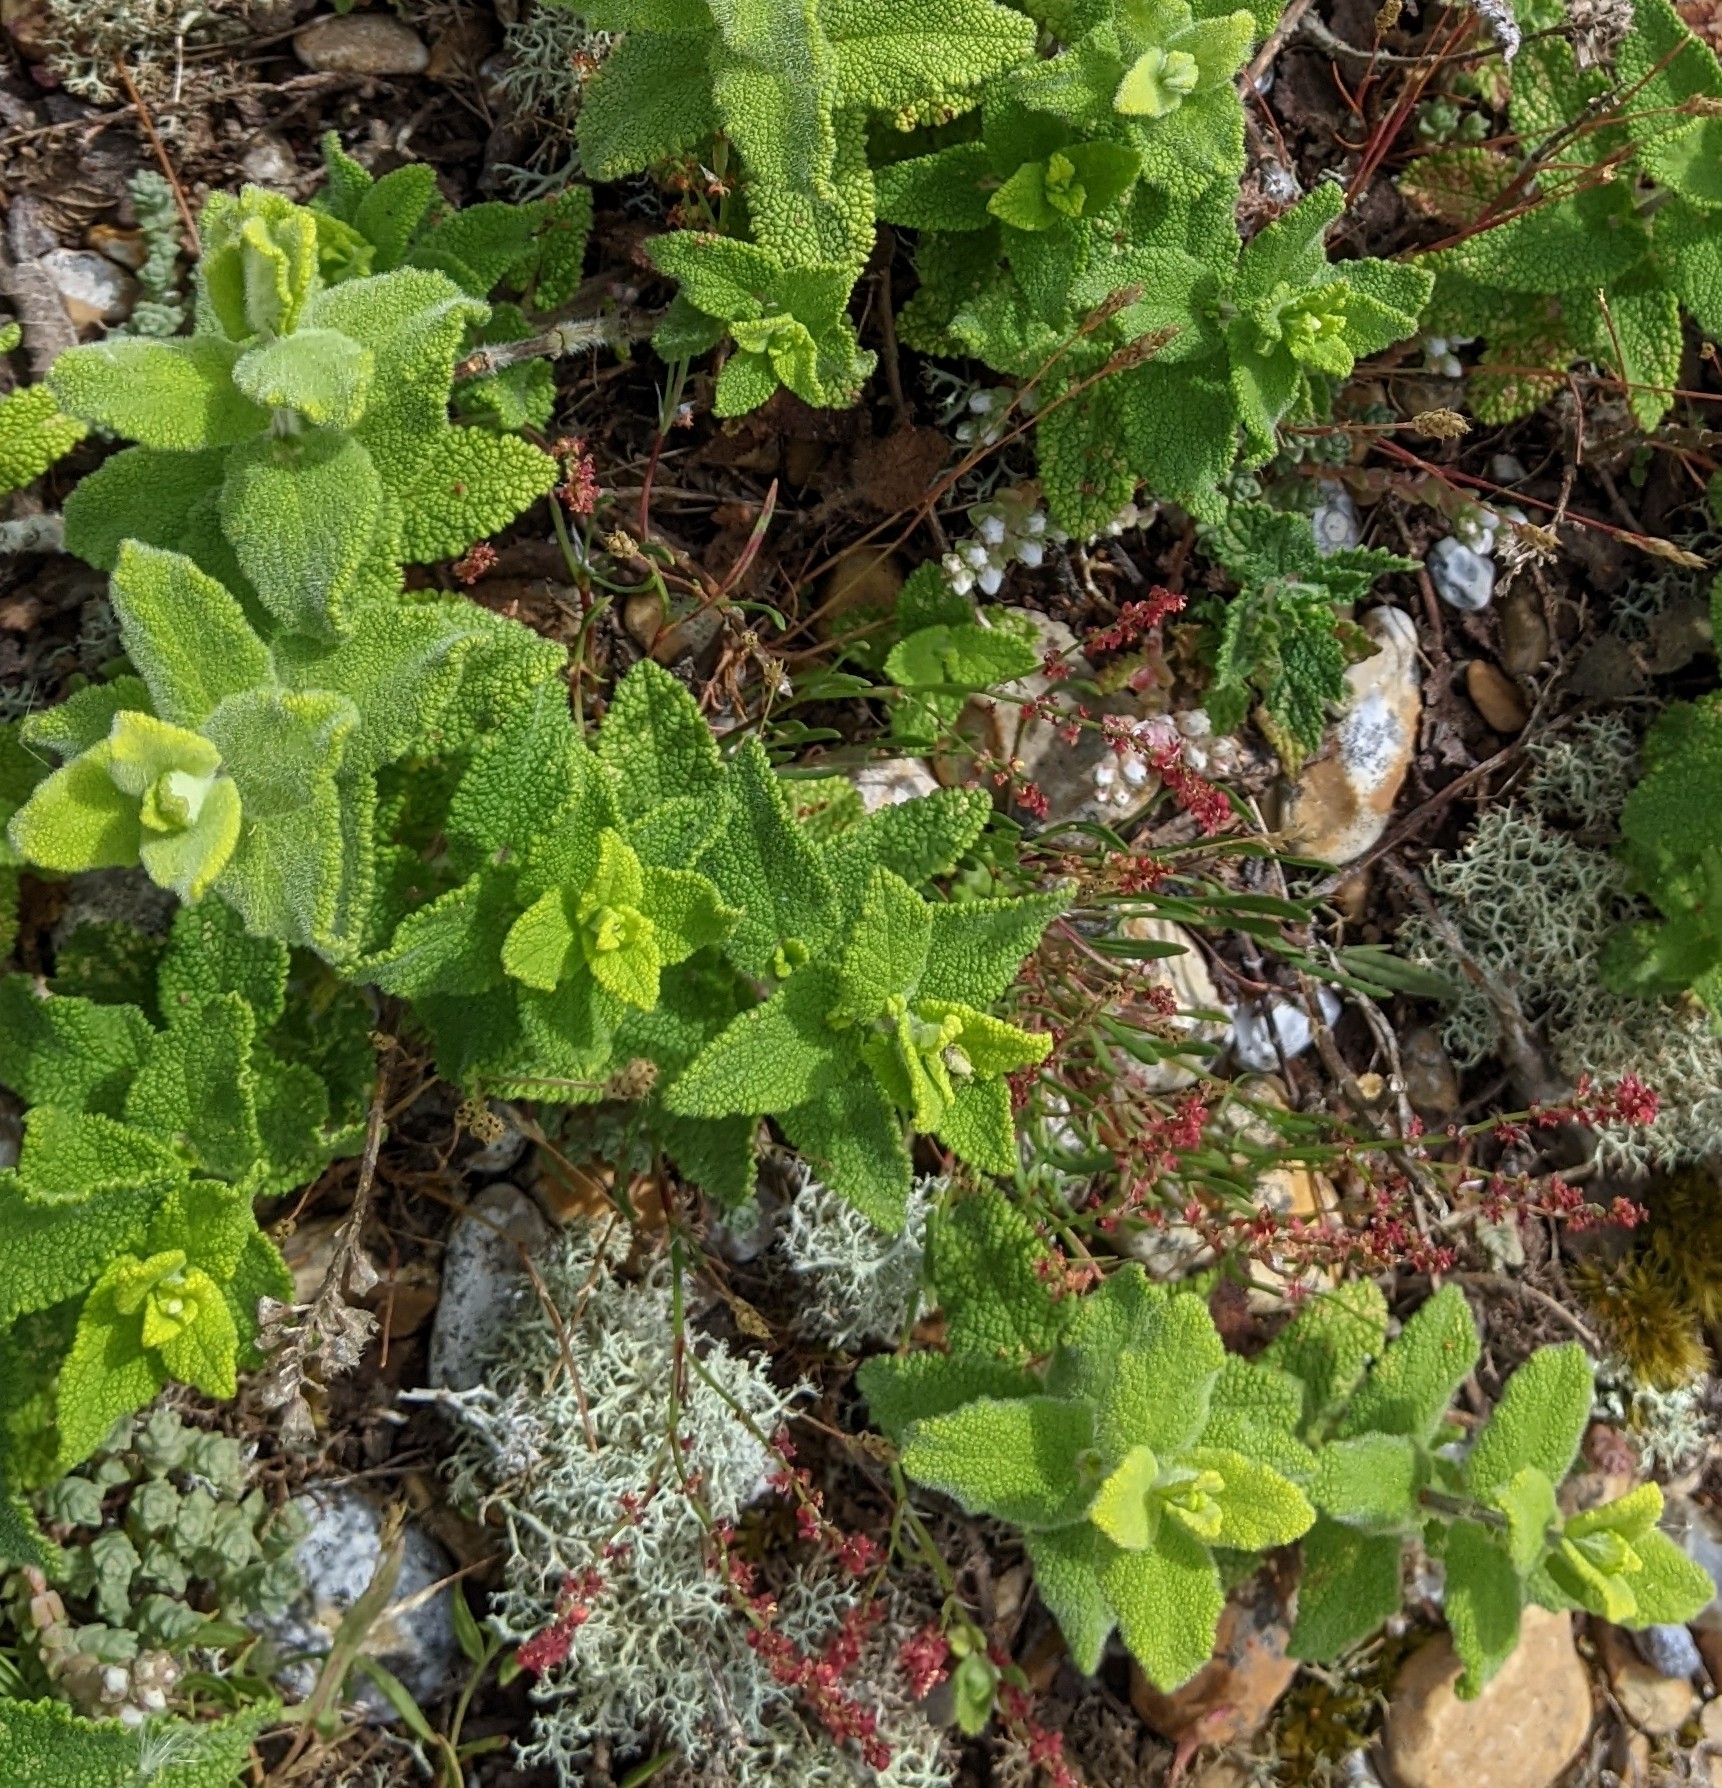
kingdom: Plantae
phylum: Tracheophyta
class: Magnoliopsida
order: Lamiales
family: Lamiaceae
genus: Teucrium
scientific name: Teucrium scorodonia
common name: Woodland germander
